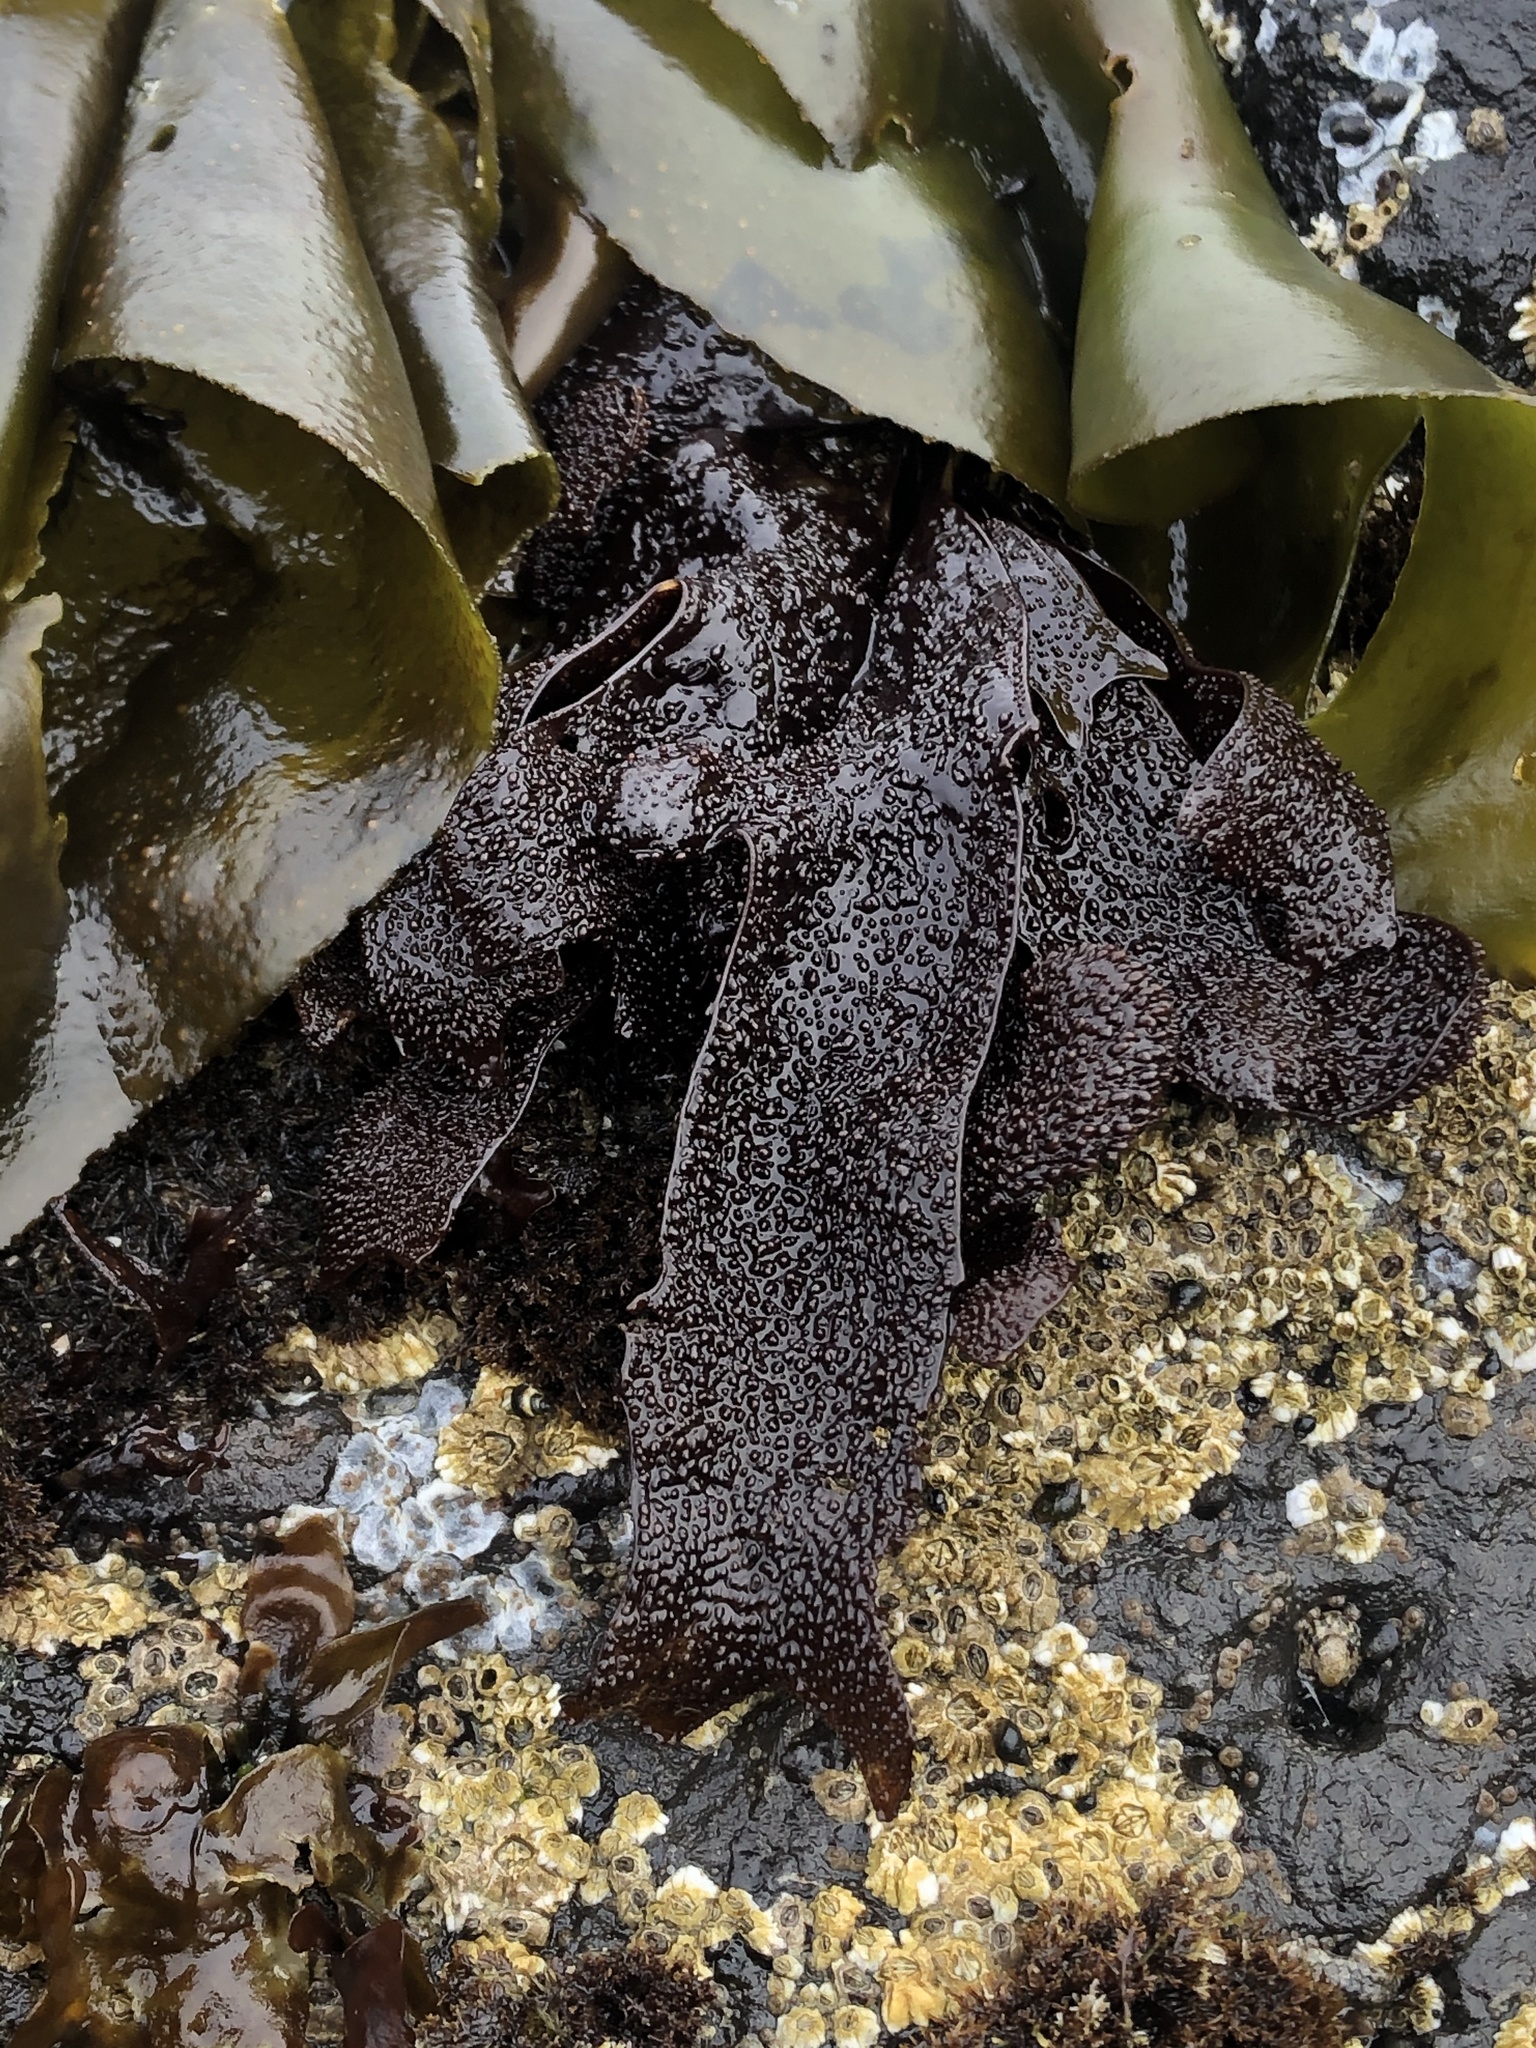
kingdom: Plantae
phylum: Rhodophyta
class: Florideophyceae
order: Gigartinales
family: Phyllophoraceae
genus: Mastocarpus
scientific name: Mastocarpus papillatus
